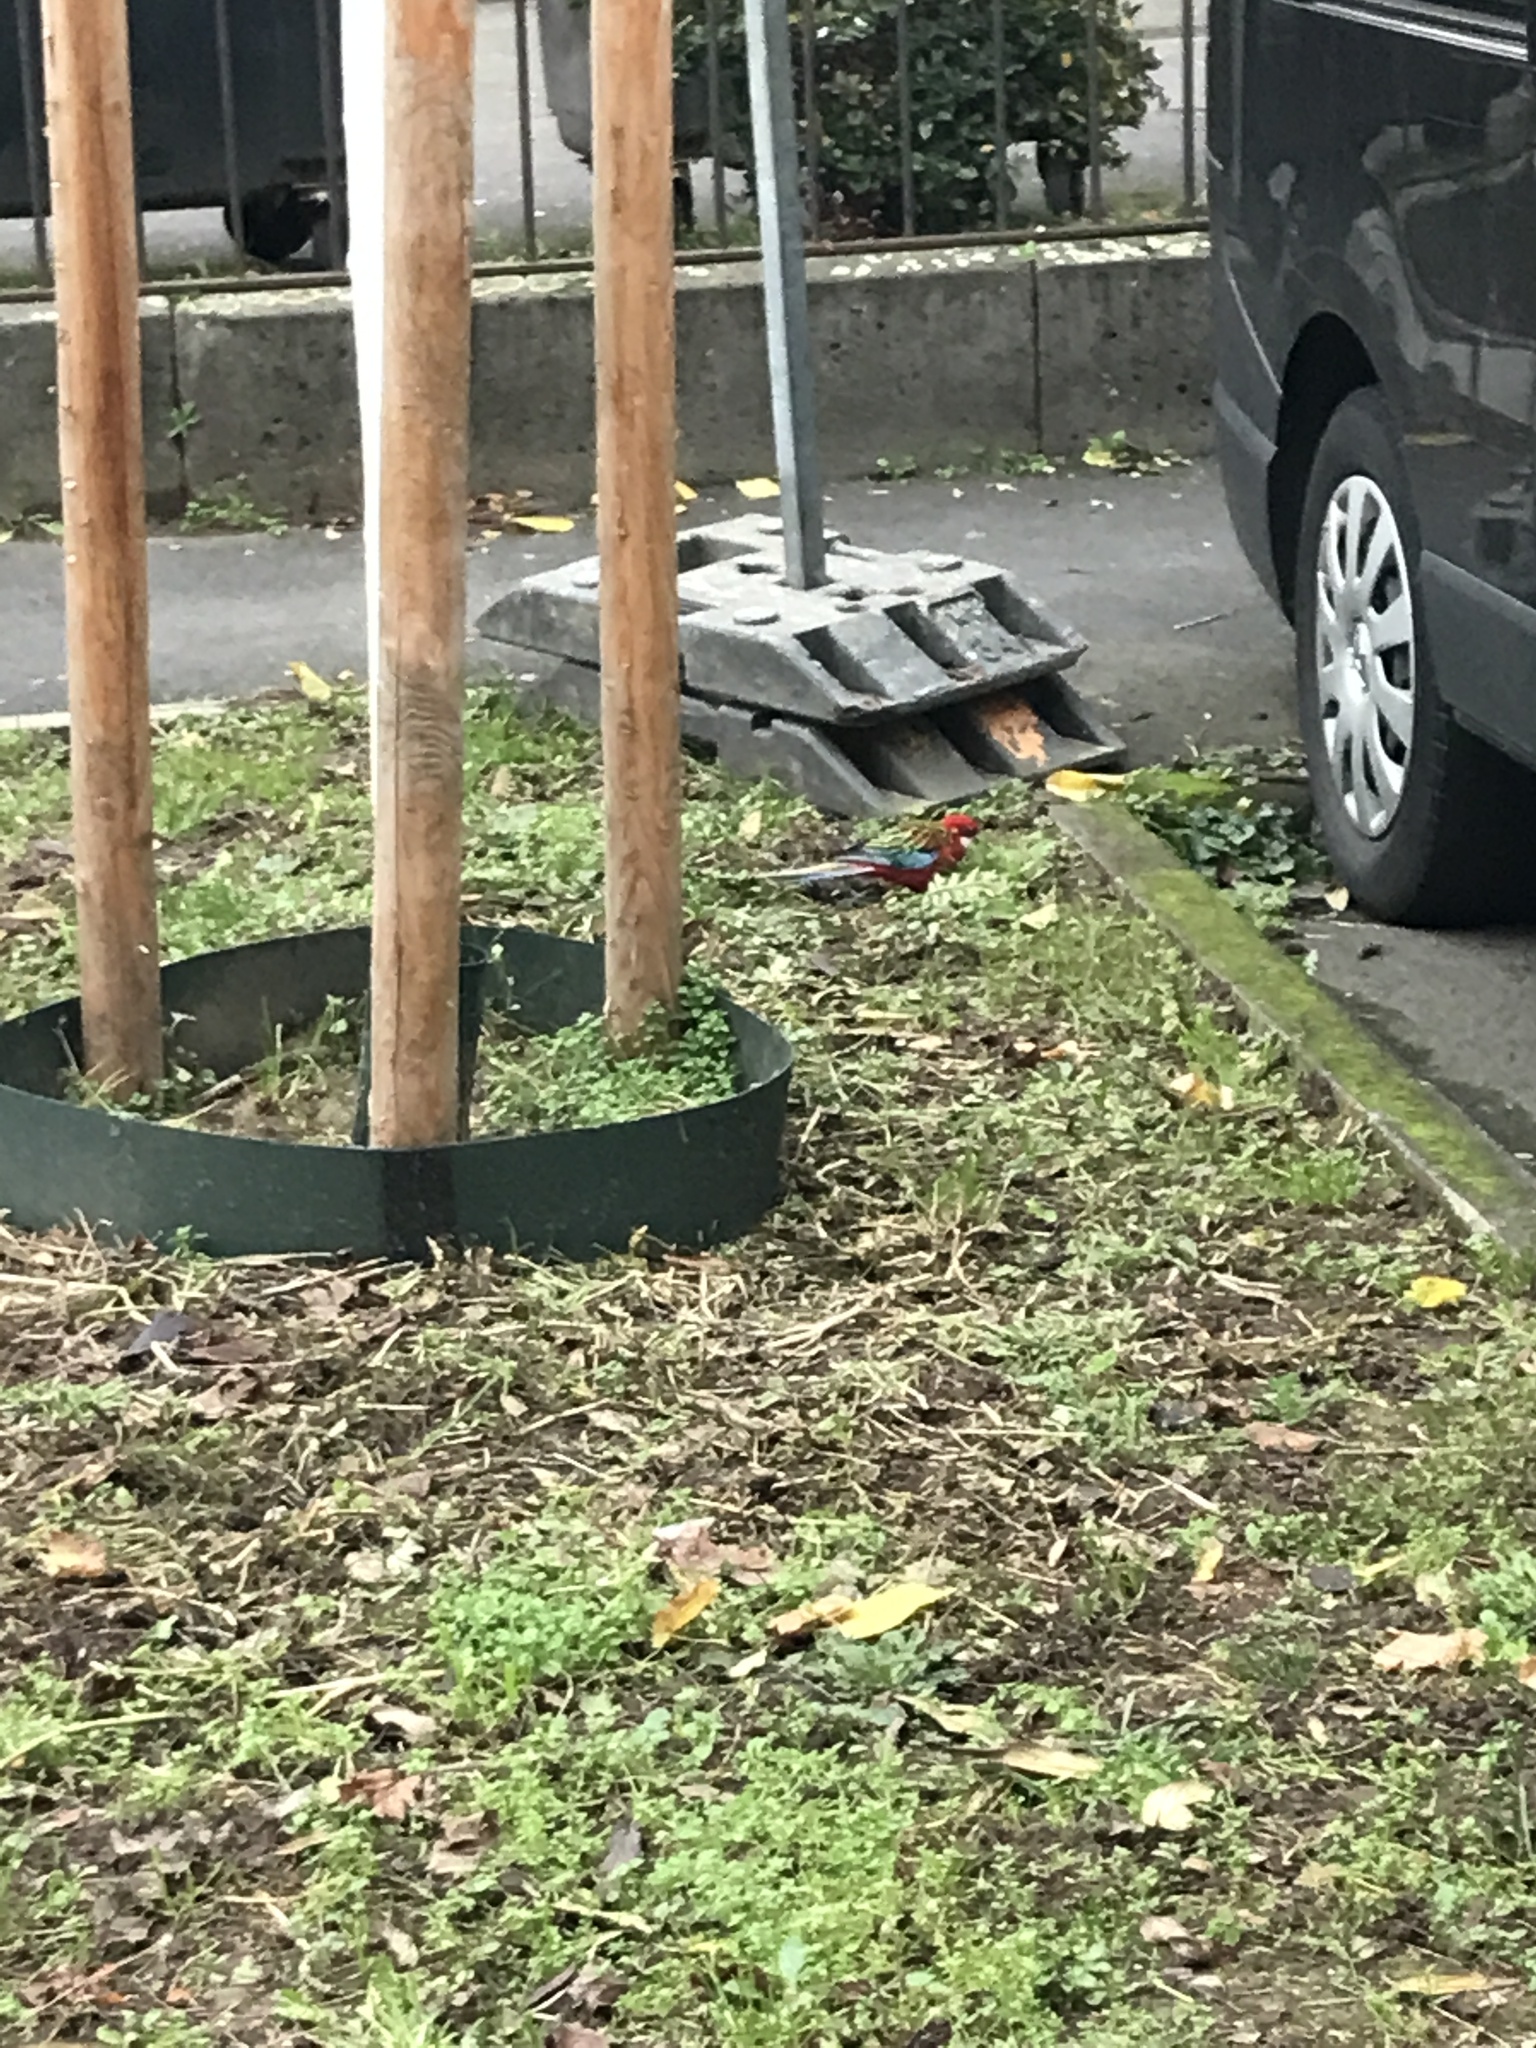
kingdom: Animalia
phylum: Chordata
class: Aves
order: Psittaciformes
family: Psittacidae
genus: Platycercus
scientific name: Platycercus eximius
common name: Eastern rosella
